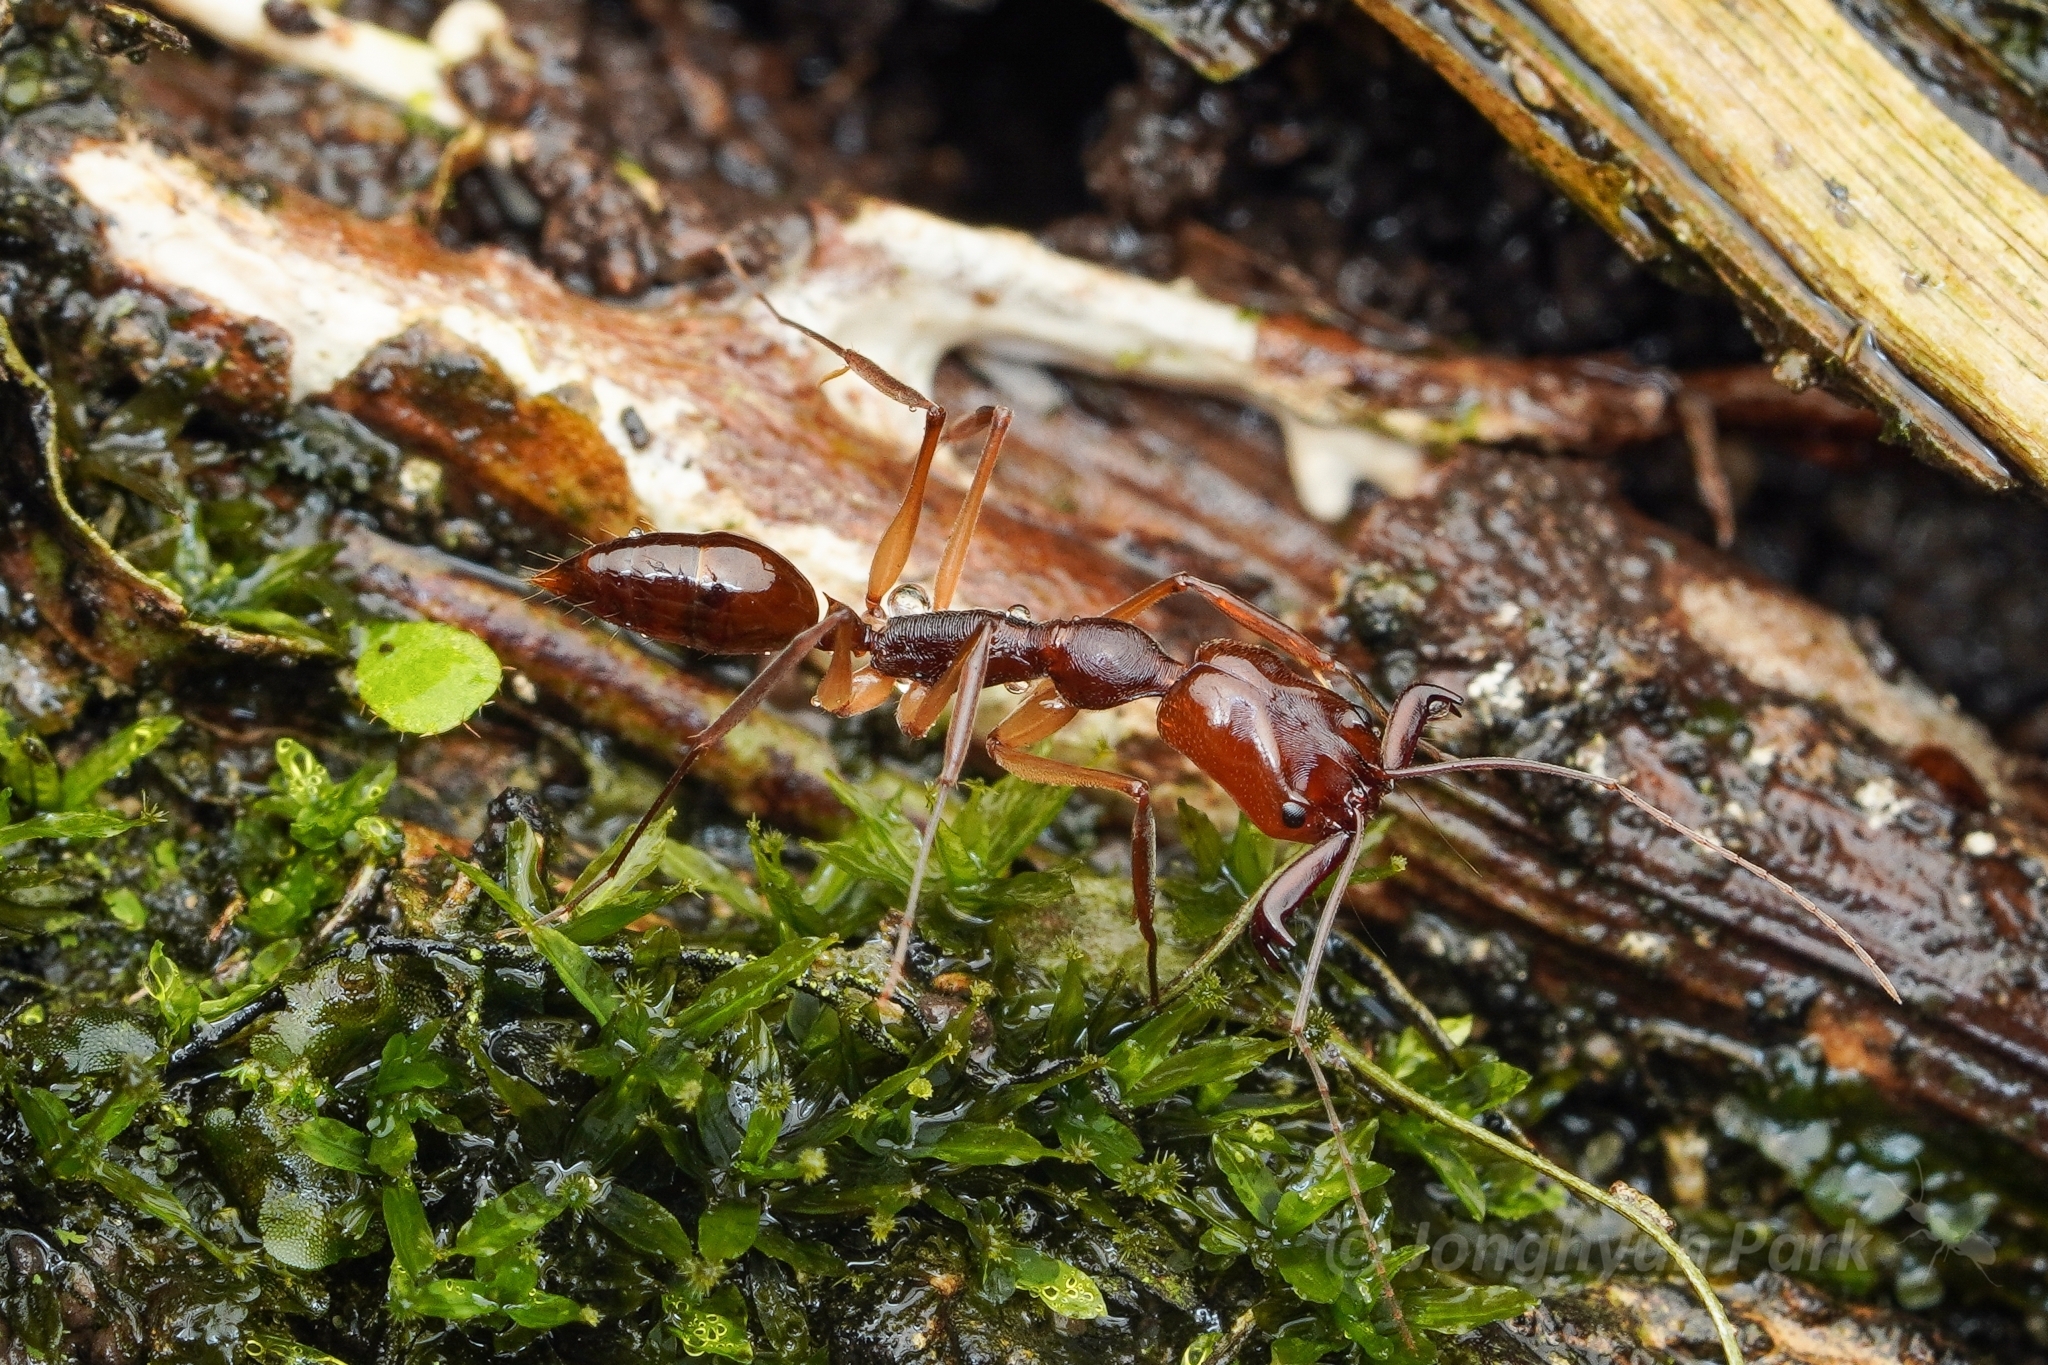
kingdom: Animalia
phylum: Arthropoda
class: Insecta
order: Hymenoptera
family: Formicidae
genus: Odontomachus
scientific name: Odontomachus rixosus
